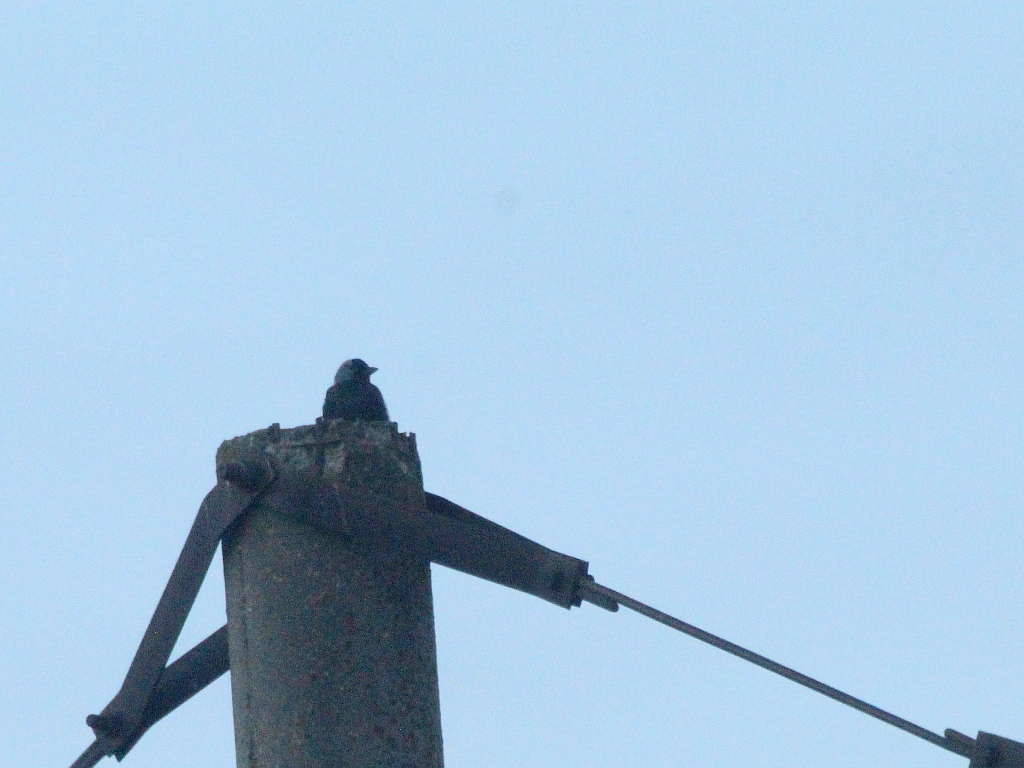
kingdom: Animalia
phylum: Chordata
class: Aves
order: Passeriformes
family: Corvidae
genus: Coloeus
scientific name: Coloeus monedula
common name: Western jackdaw
